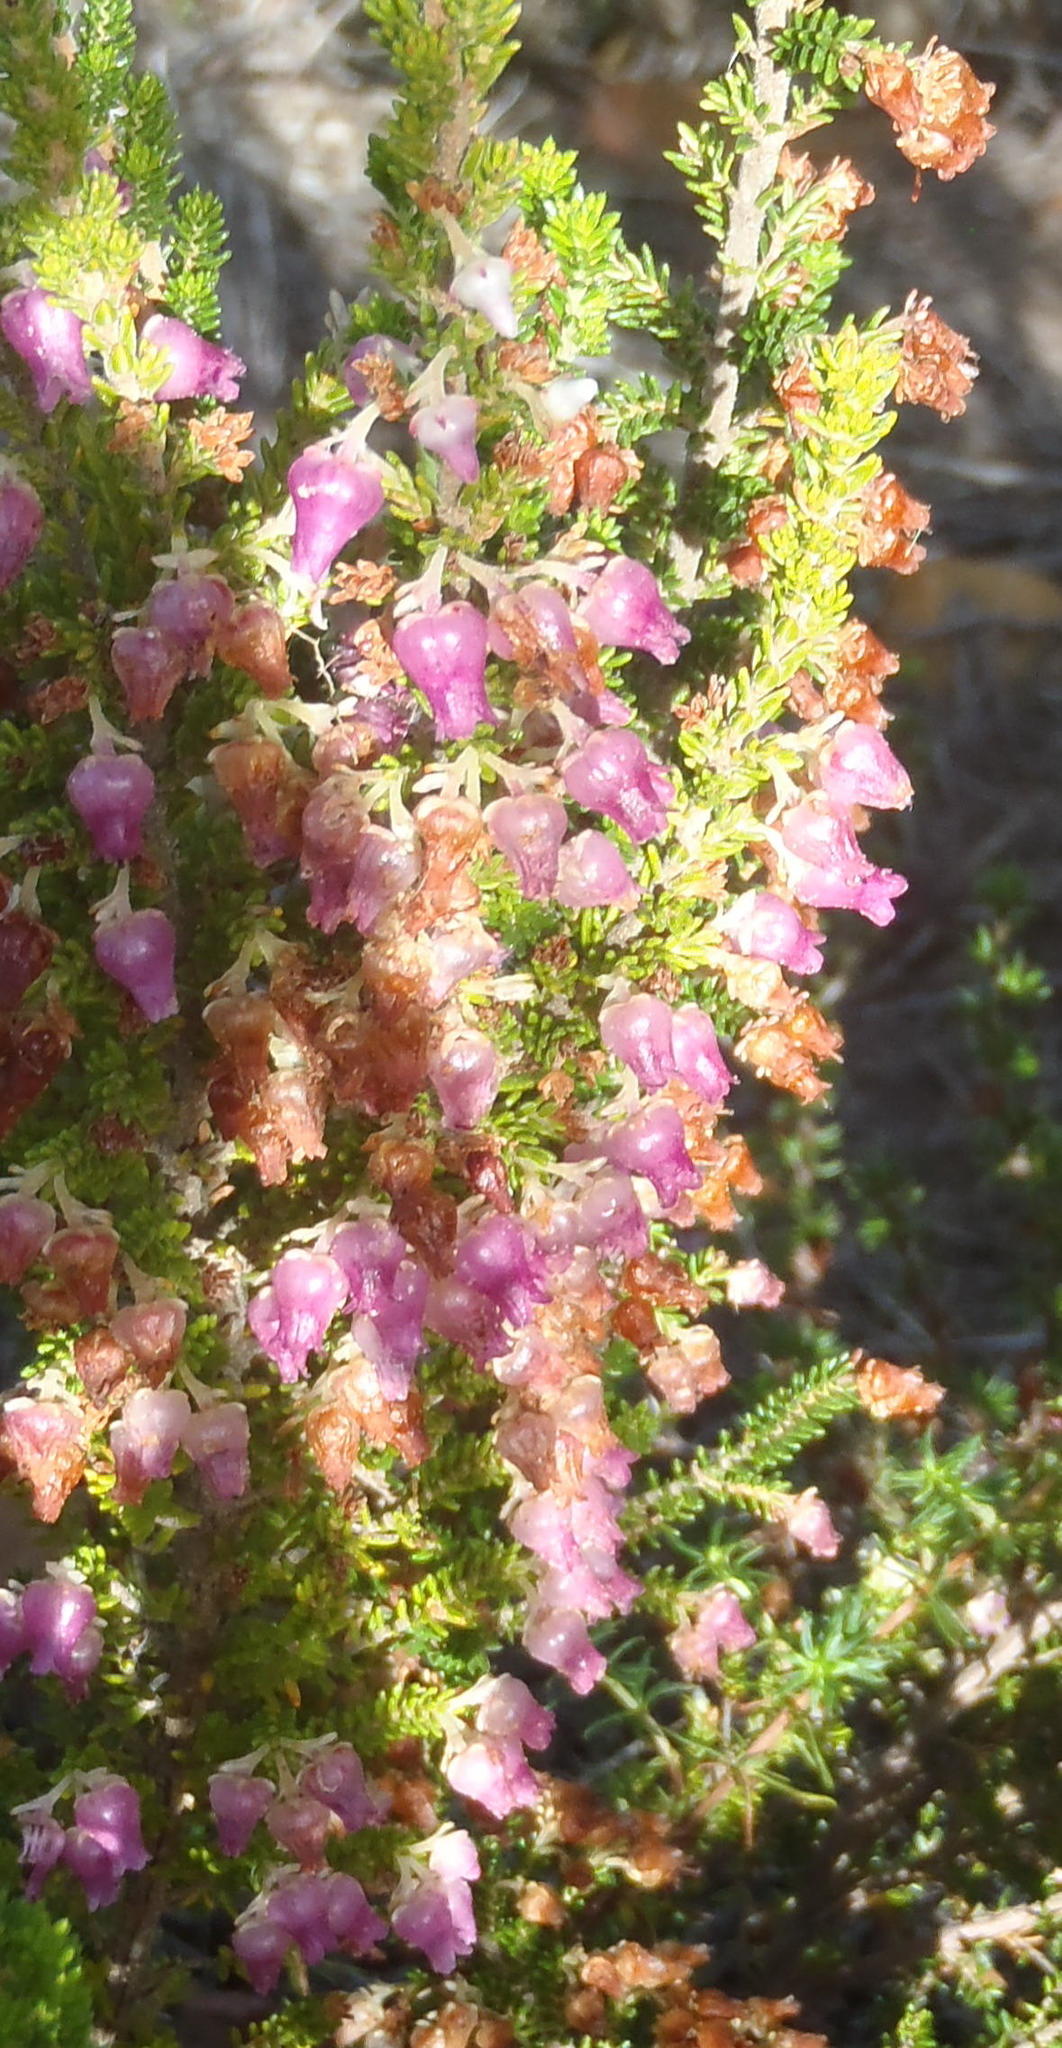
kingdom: Plantae
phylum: Tracheophyta
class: Magnoliopsida
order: Ericales
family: Ericaceae
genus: Erica
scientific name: Erica glomiflora
